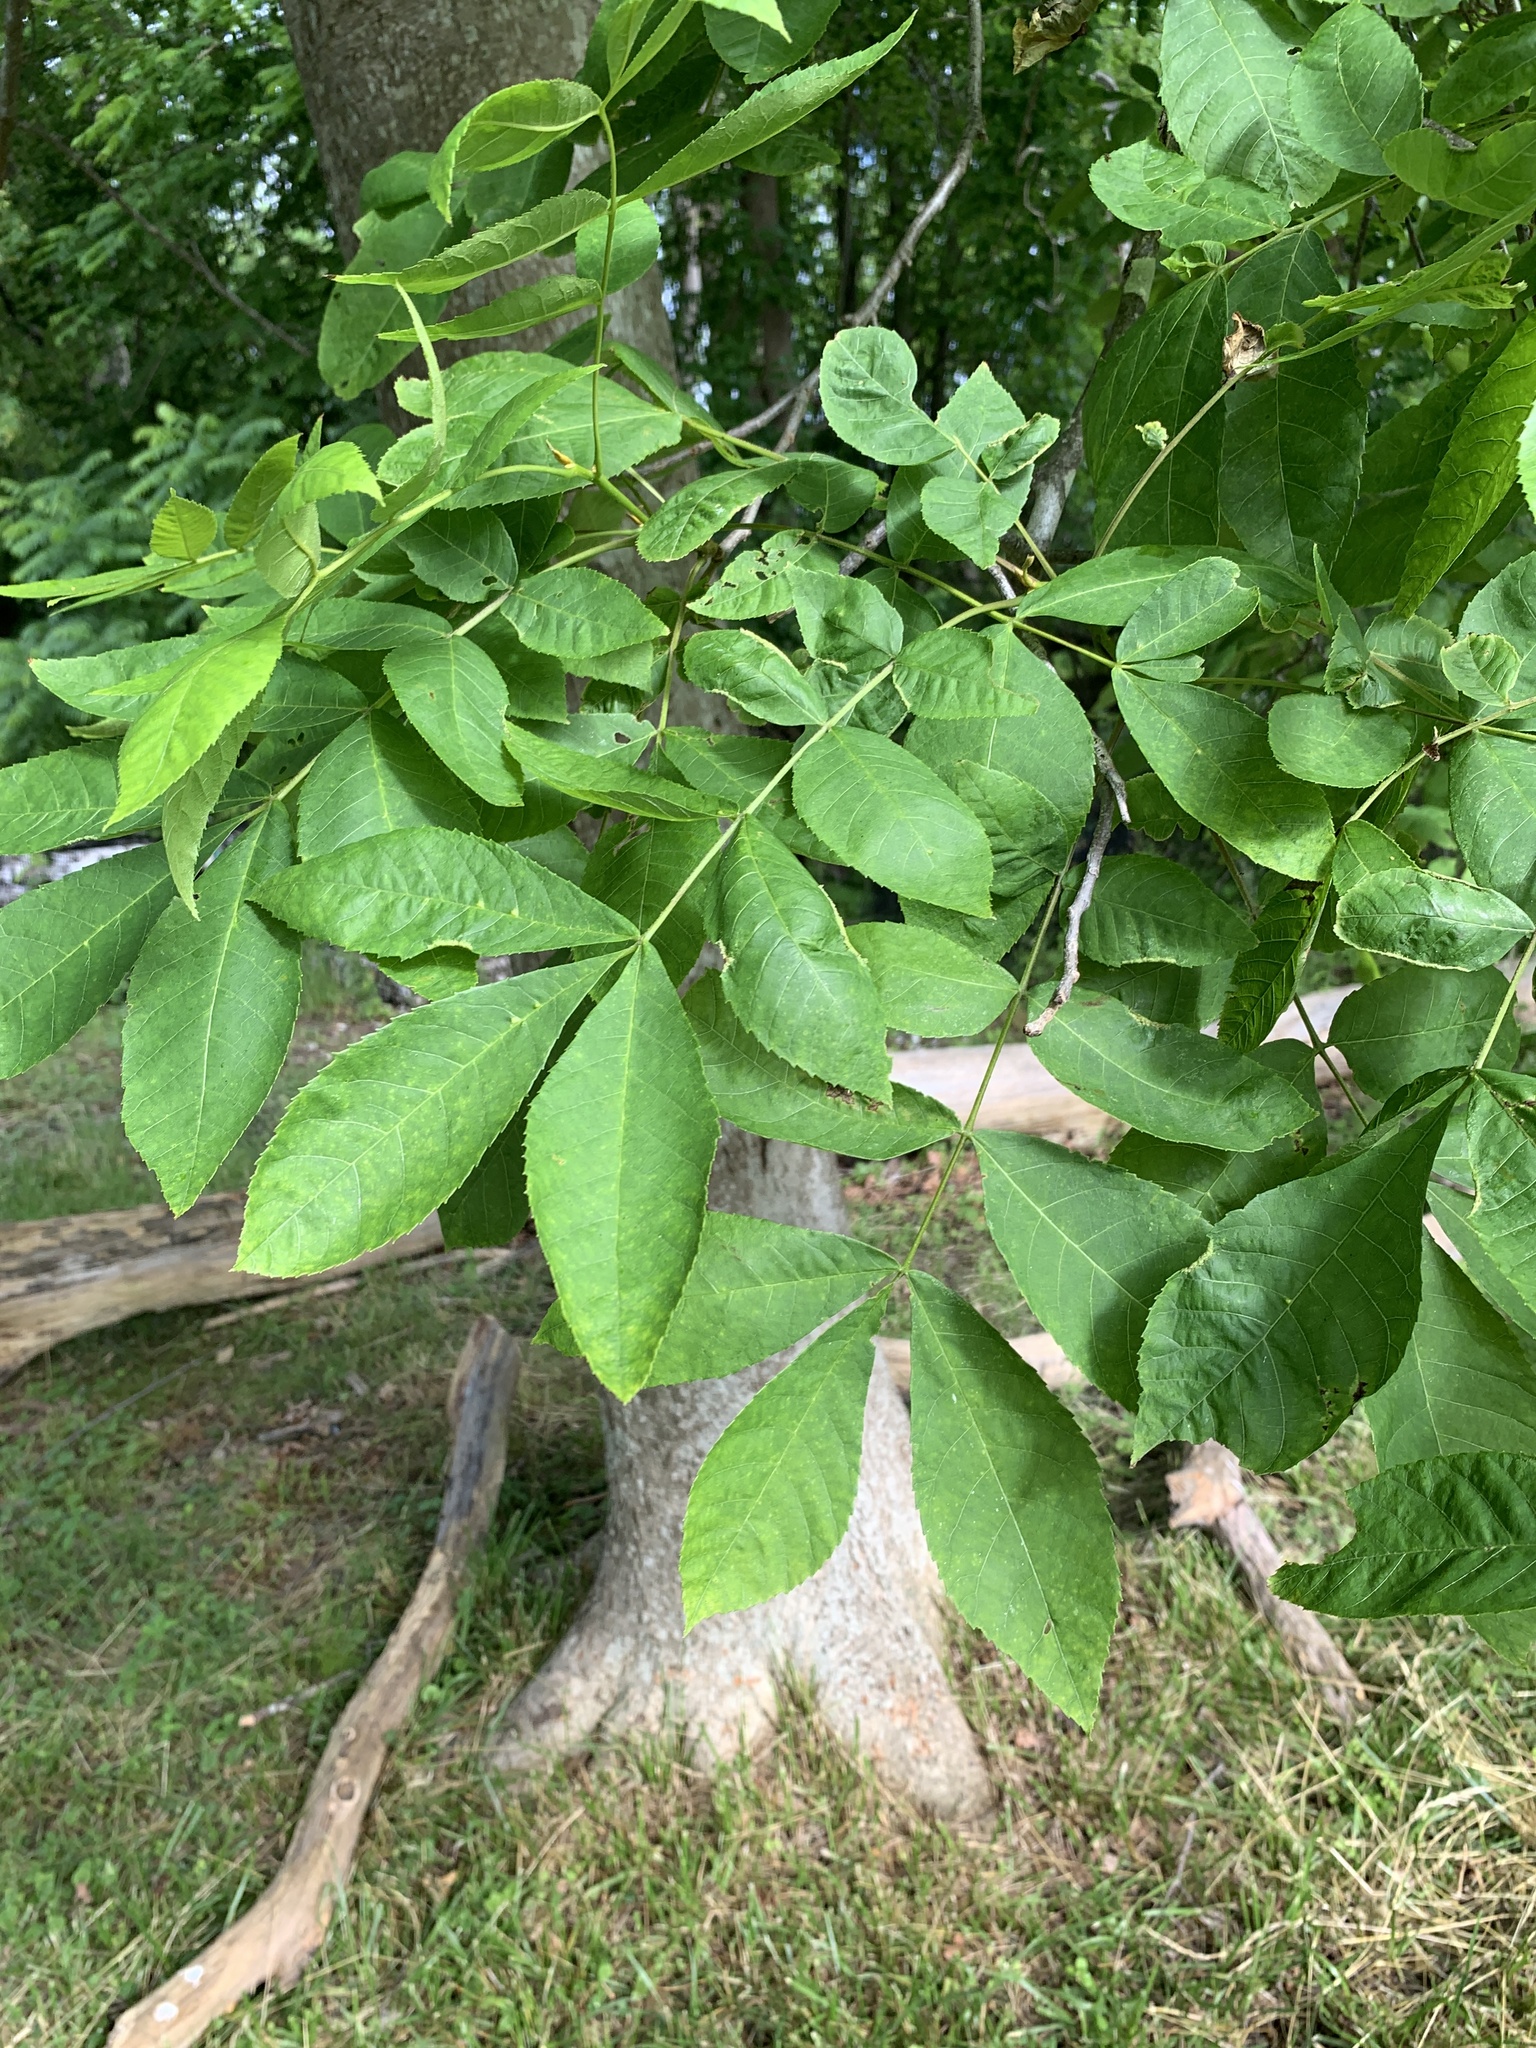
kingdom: Plantae
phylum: Tracheophyta
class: Magnoliopsida
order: Fagales
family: Juglandaceae
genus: Carya
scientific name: Carya cordiformis
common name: Bitternut hickory
